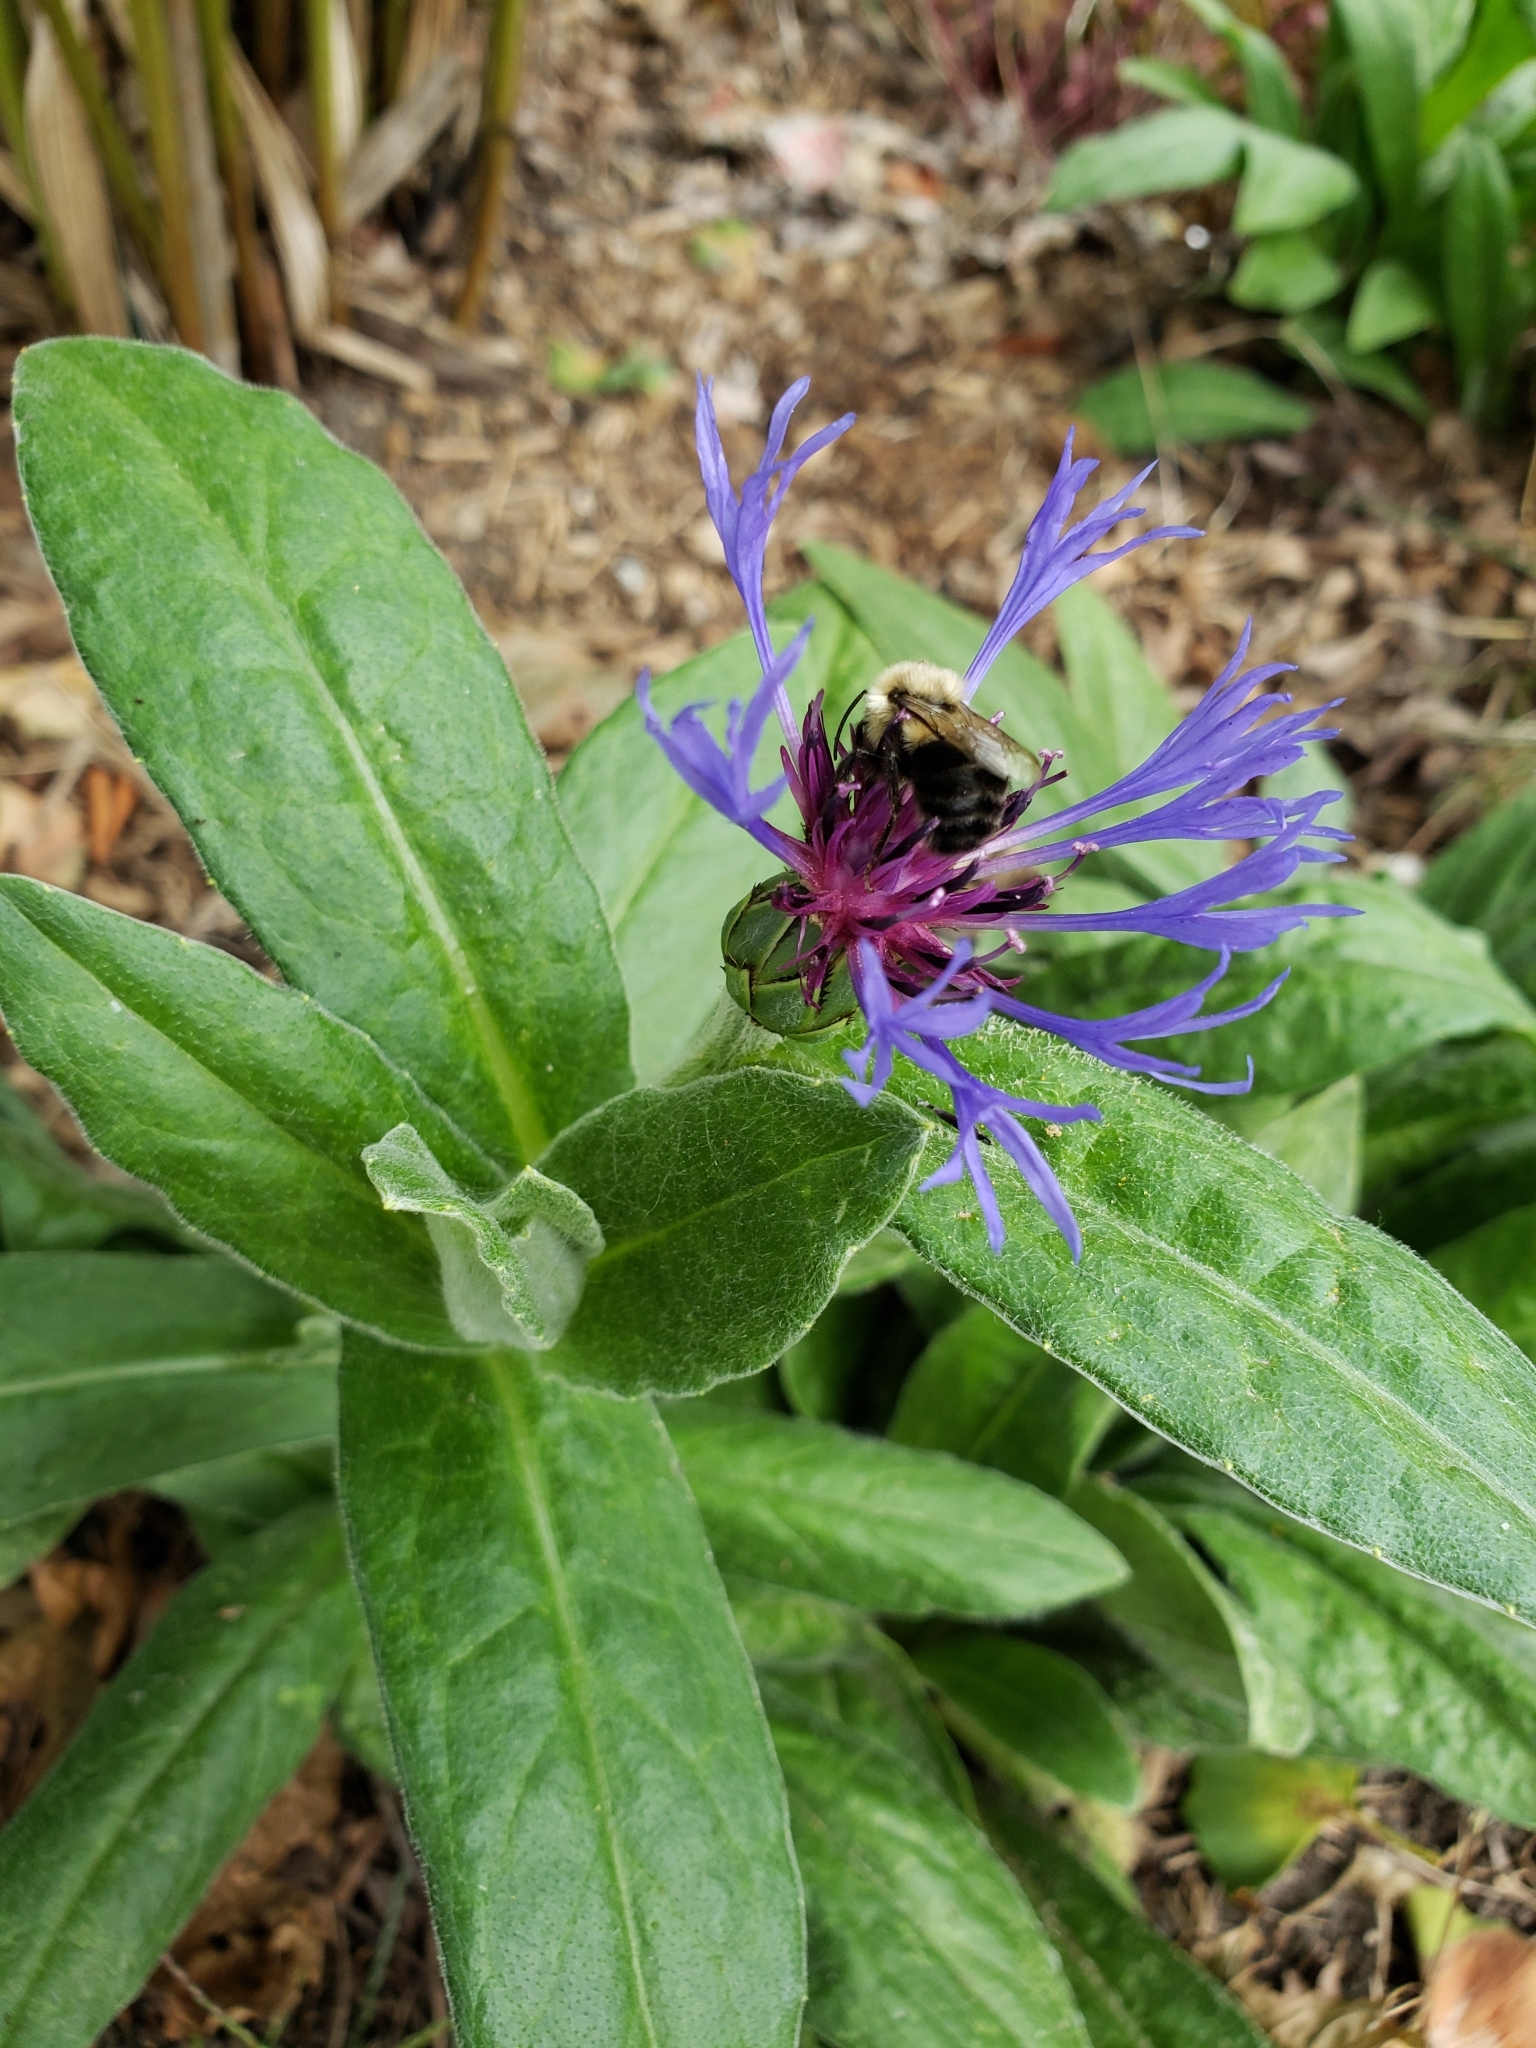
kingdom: Animalia
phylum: Arthropoda
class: Insecta
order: Hymenoptera
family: Apidae
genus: Bombus
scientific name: Bombus impatiens
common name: Common eastern bumble bee
